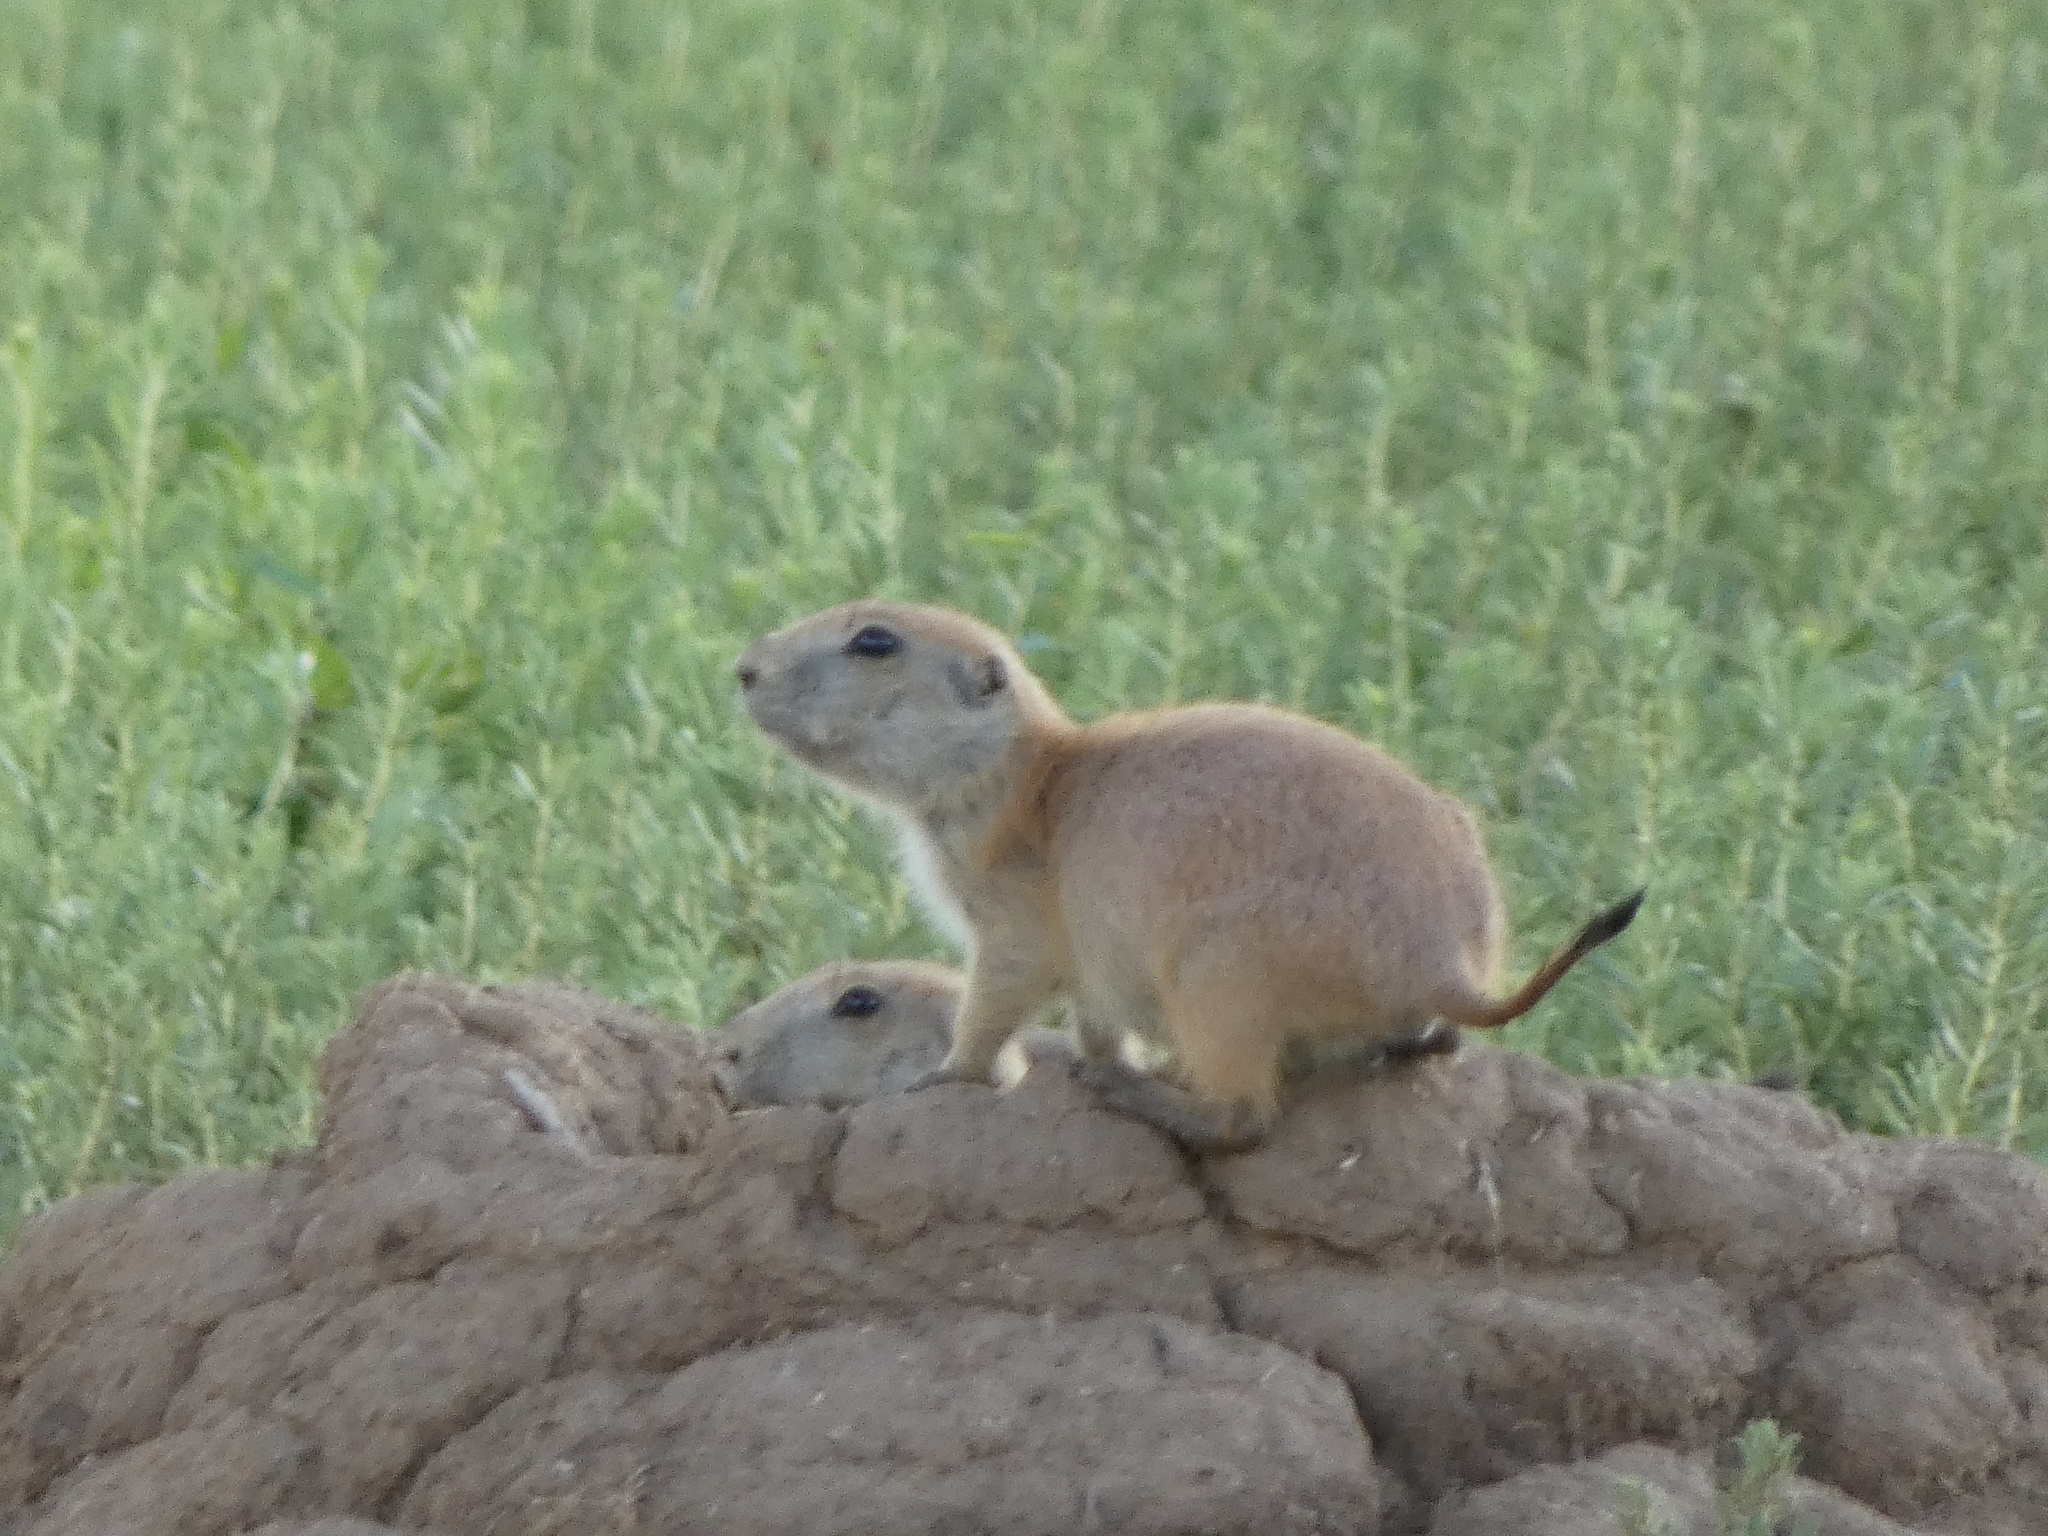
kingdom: Animalia
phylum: Chordata
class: Mammalia
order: Rodentia
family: Sciuridae
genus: Cynomys
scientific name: Cynomys ludovicianus
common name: Black-tailed prairie dog
